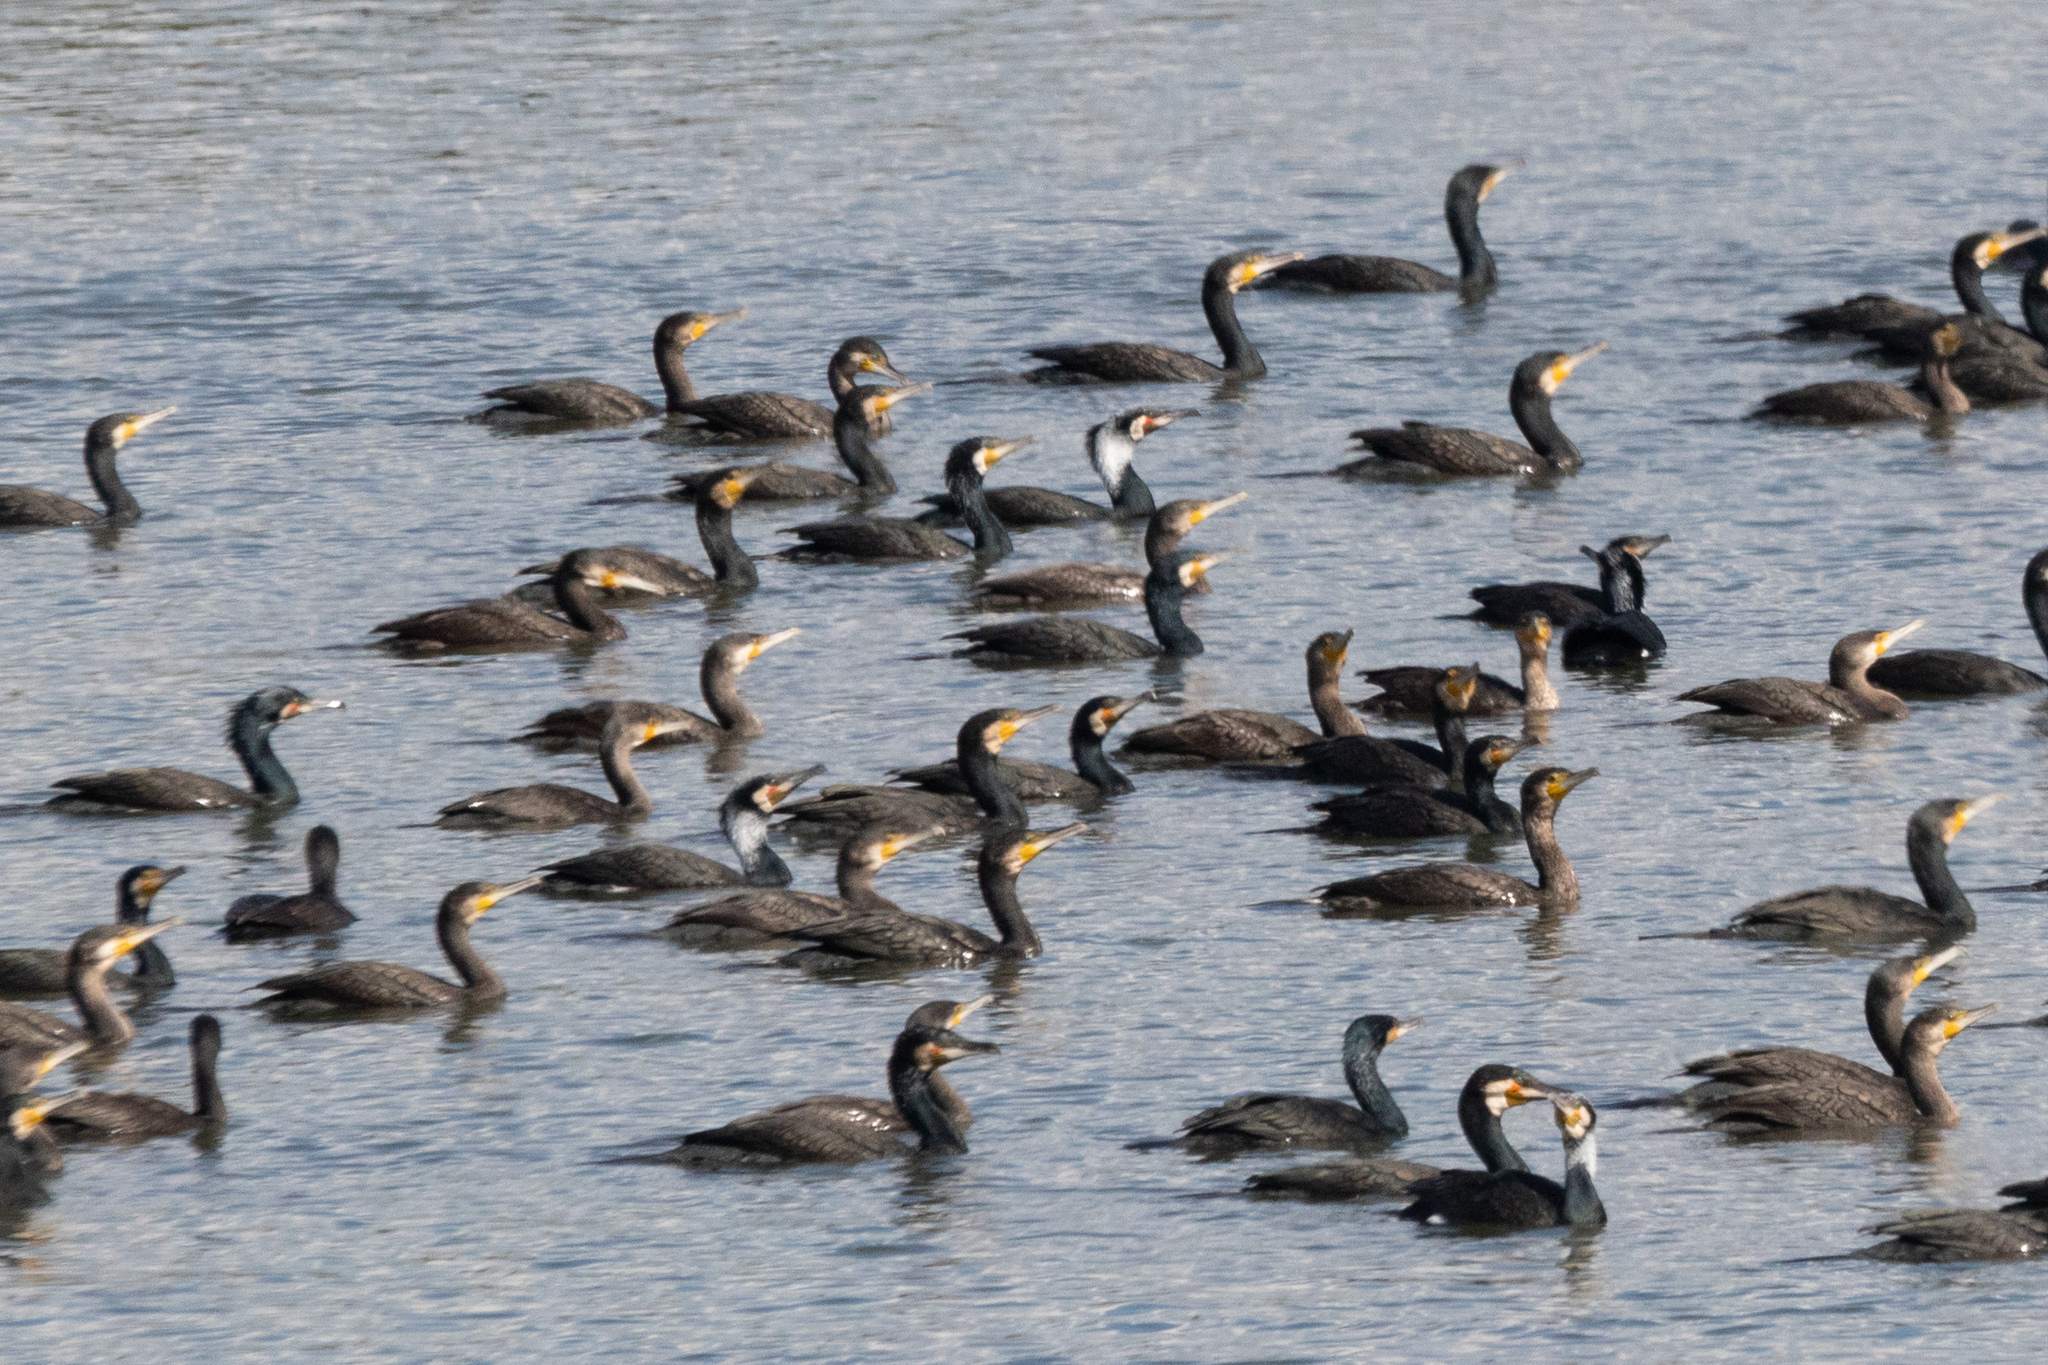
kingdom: Animalia
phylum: Chordata
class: Aves
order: Suliformes
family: Phalacrocoracidae
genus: Phalacrocorax
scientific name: Phalacrocorax carbo
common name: Great cormorant
